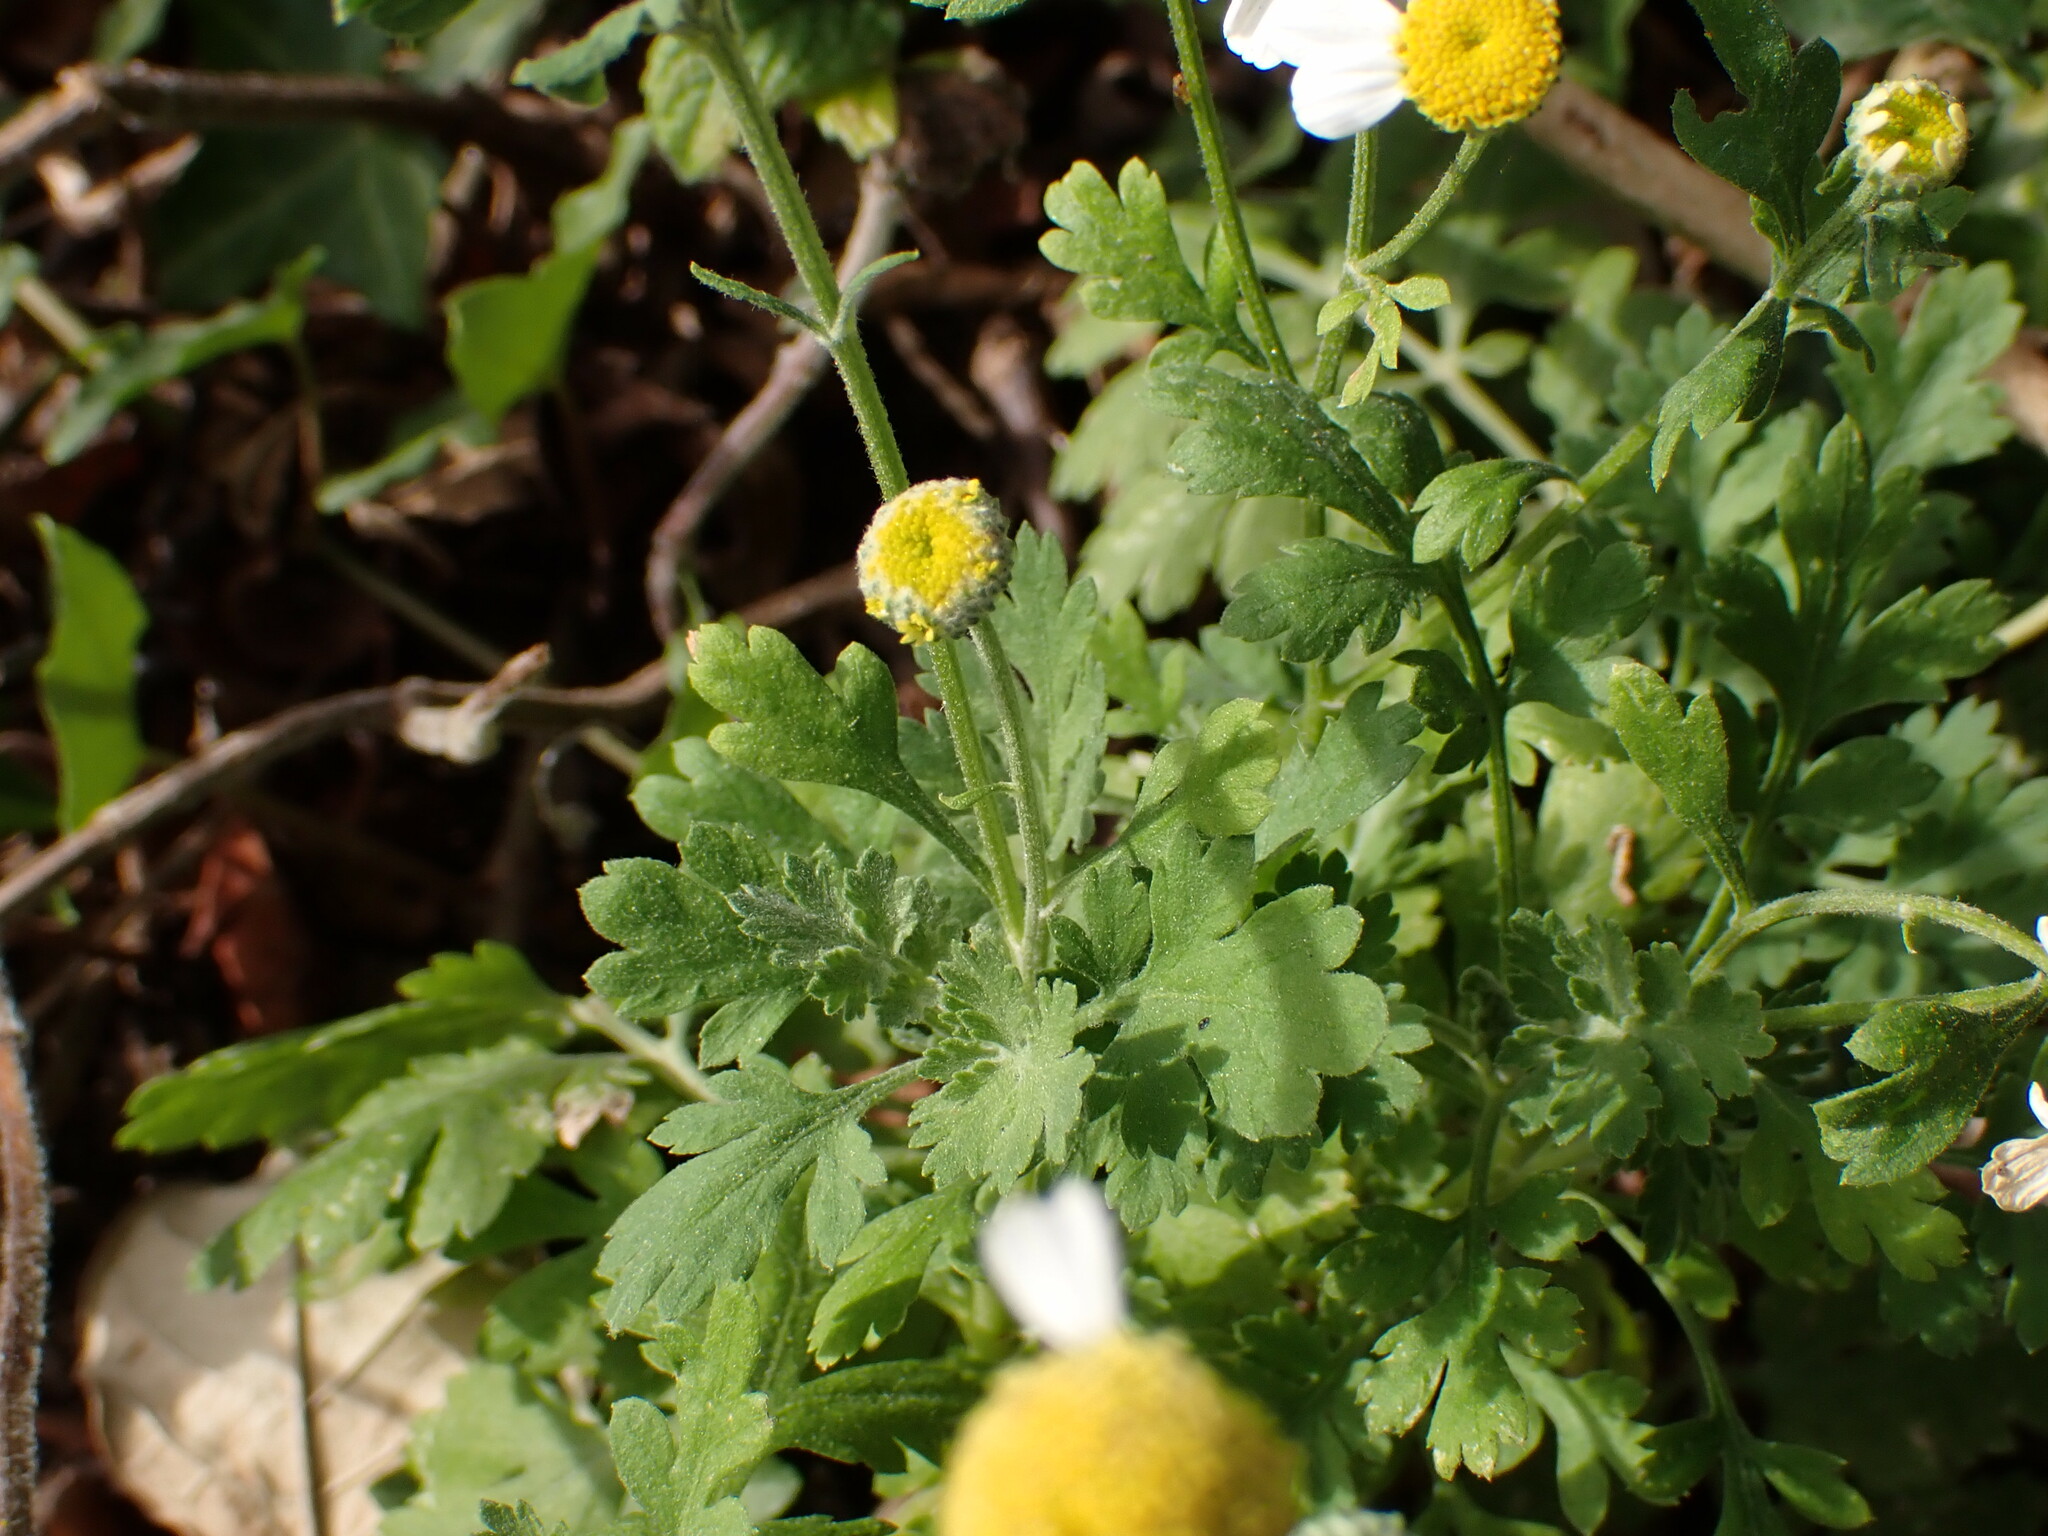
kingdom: Plantae
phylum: Tracheophyta
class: Magnoliopsida
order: Asterales
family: Asteraceae
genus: Tanacetum
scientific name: Tanacetum parthenium
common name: Feverfew
